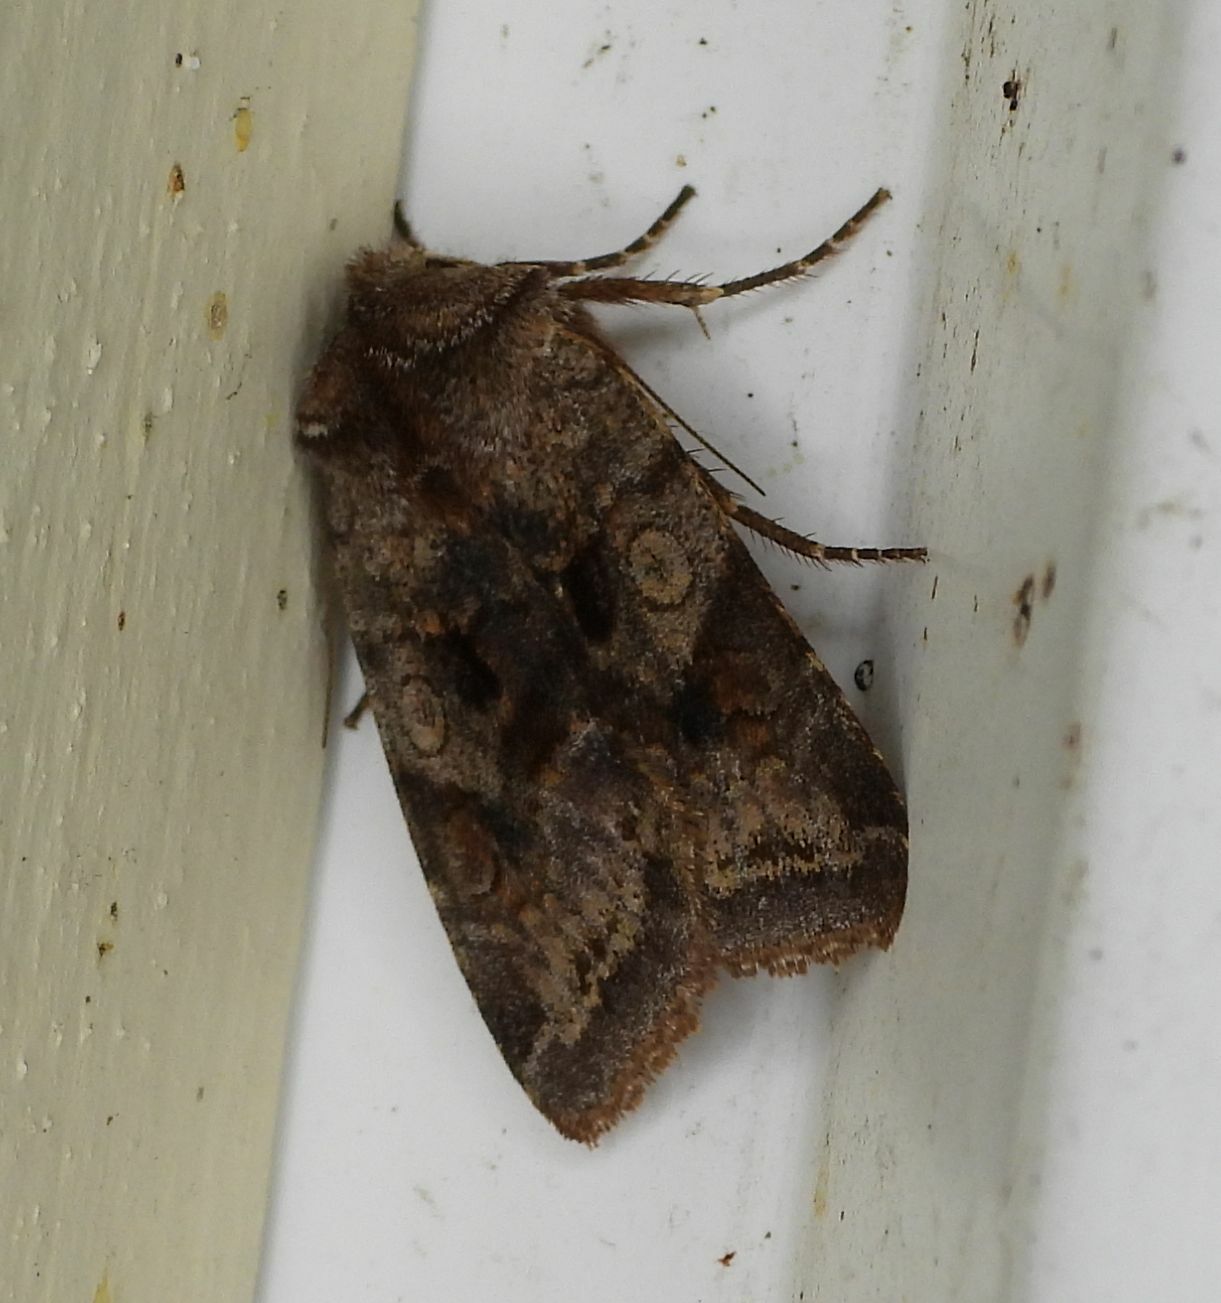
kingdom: Animalia
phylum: Arthropoda
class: Insecta
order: Lepidoptera
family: Noctuidae
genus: Cerastis
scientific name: Cerastis salicarum
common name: Willow dart
